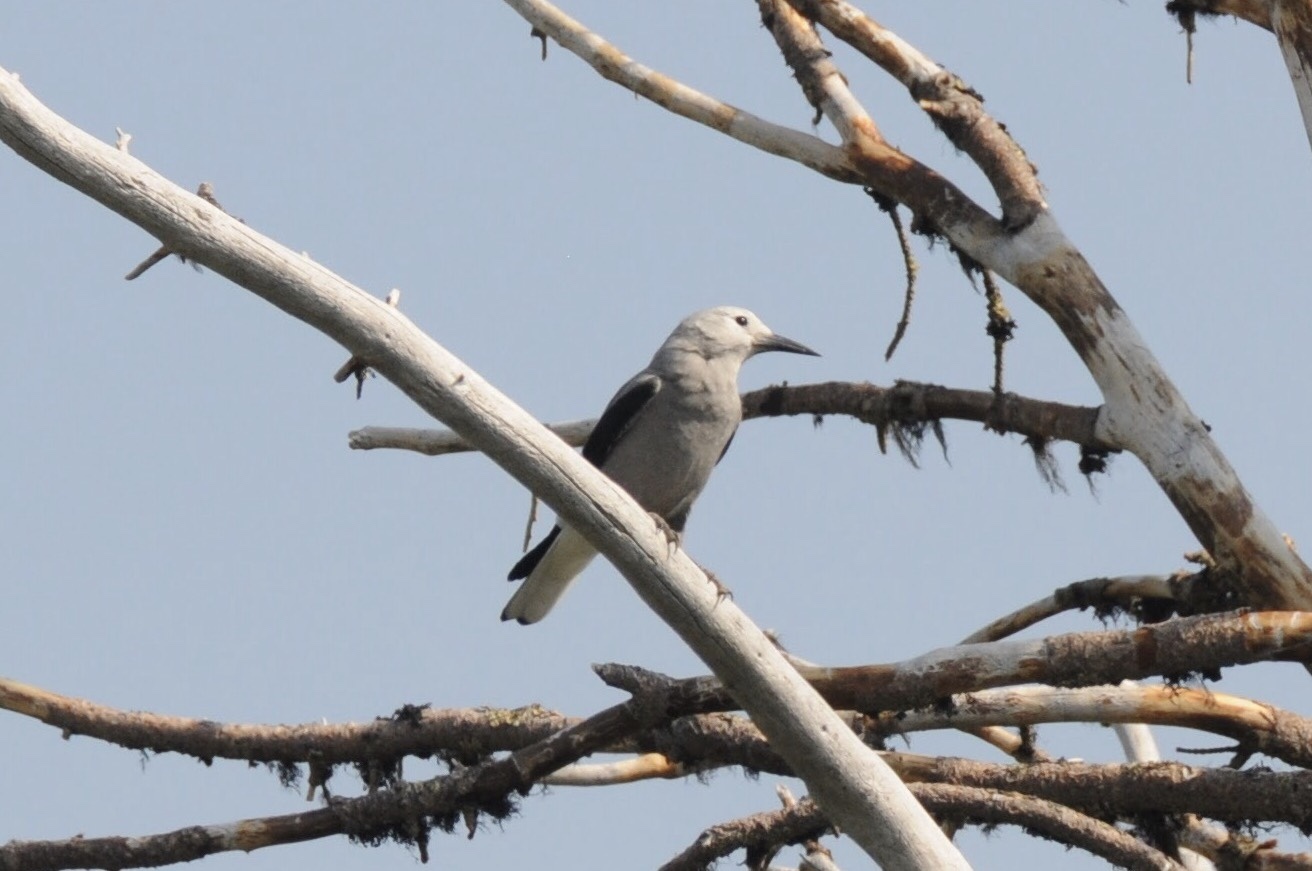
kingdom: Animalia
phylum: Chordata
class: Aves
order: Passeriformes
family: Corvidae
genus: Nucifraga
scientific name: Nucifraga columbiana
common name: Clark's nutcracker
